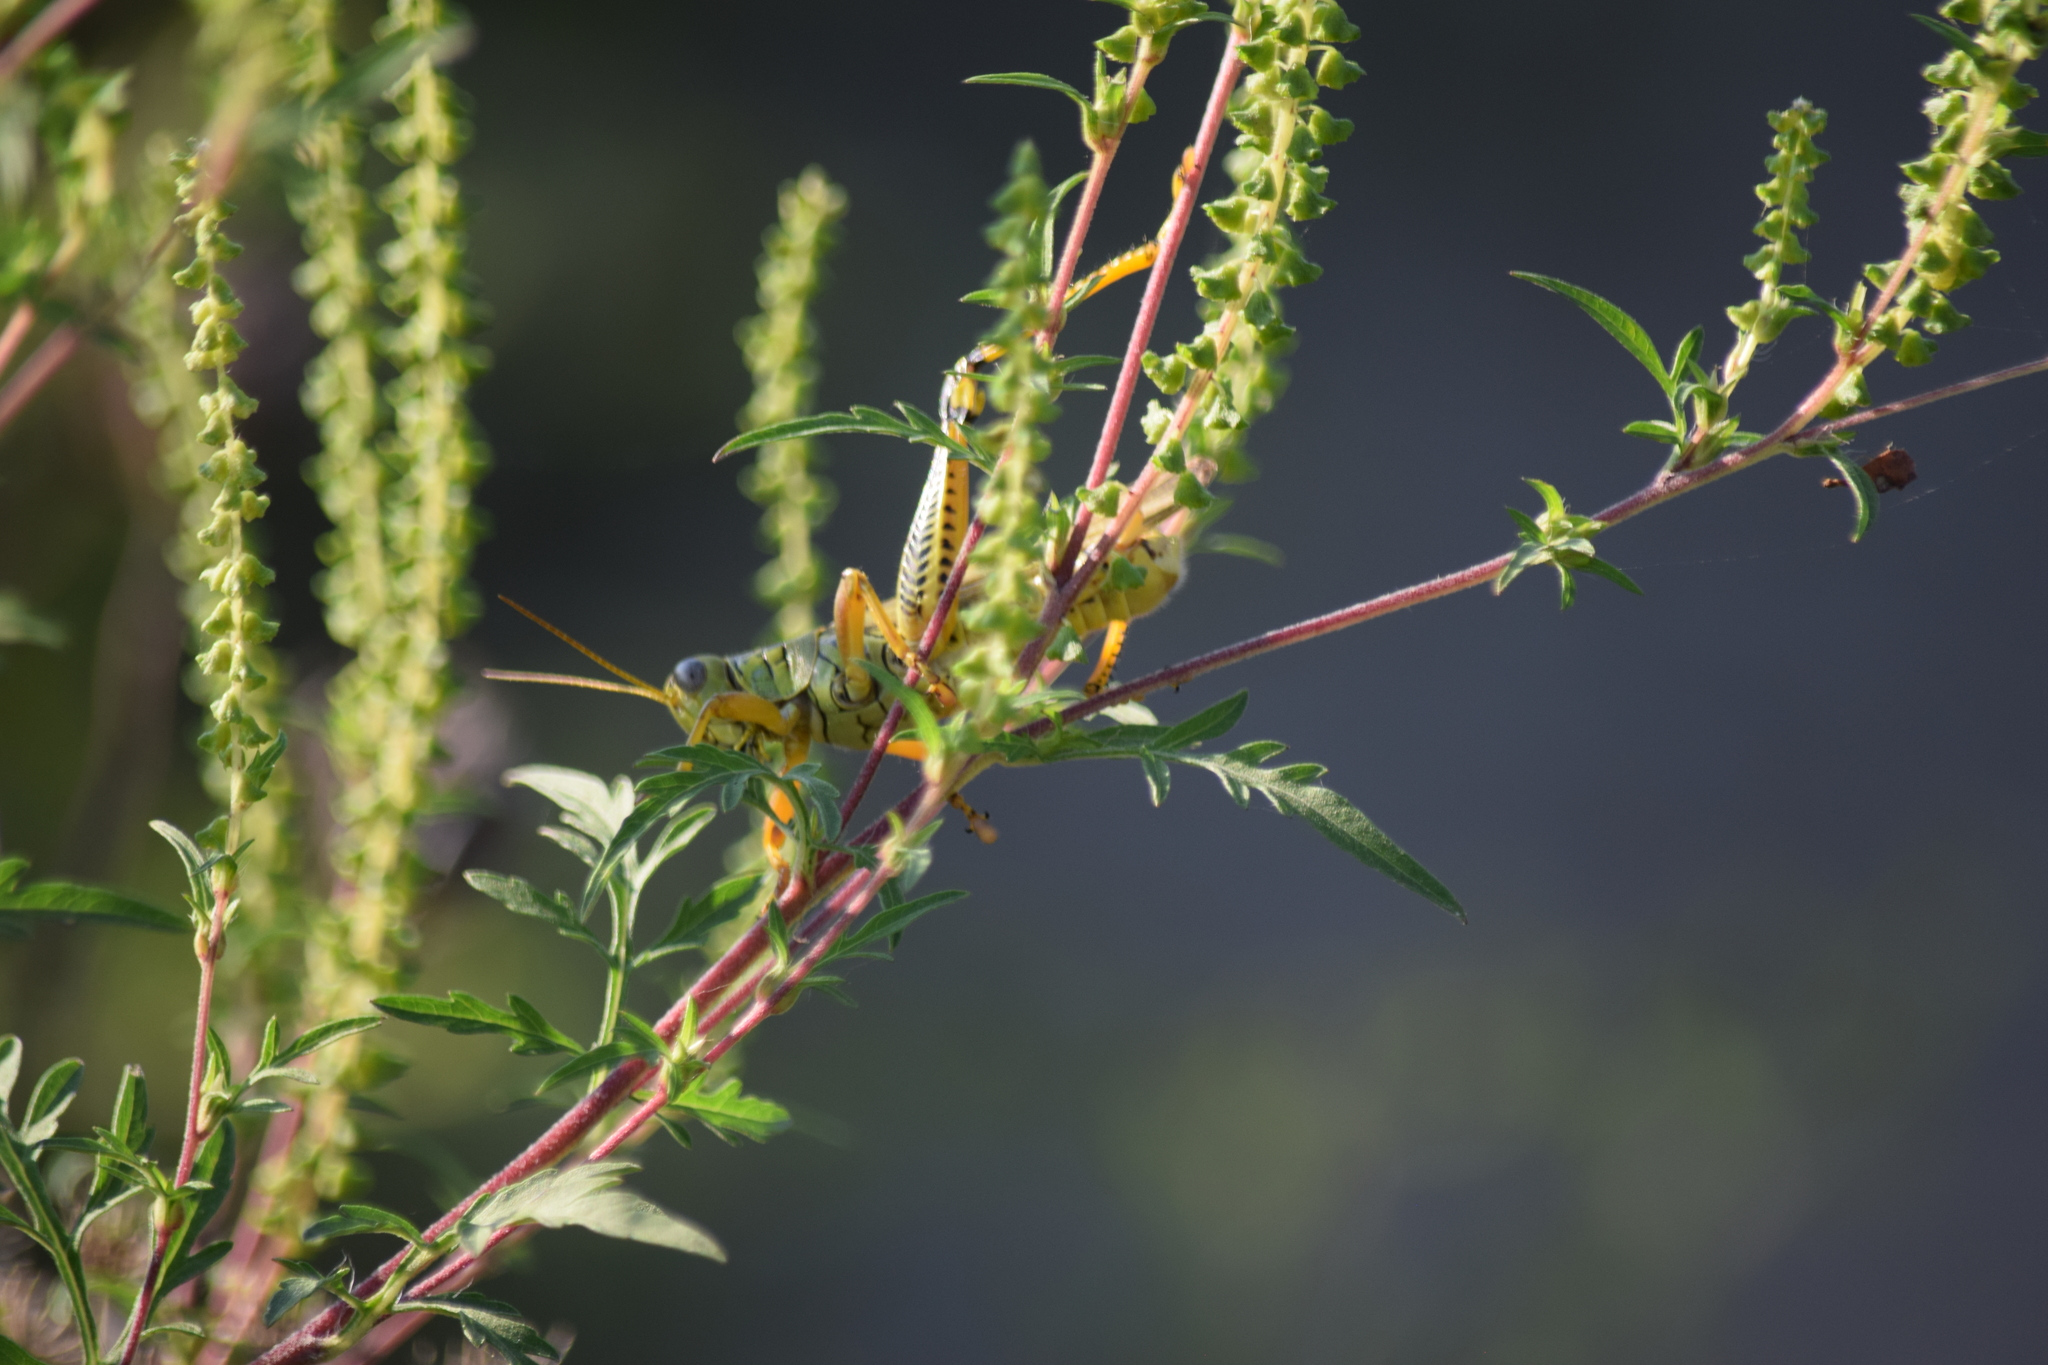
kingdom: Animalia
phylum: Arthropoda
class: Insecta
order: Orthoptera
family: Acrididae
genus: Melanoplus
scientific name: Melanoplus differentialis
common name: Differential grasshopper
